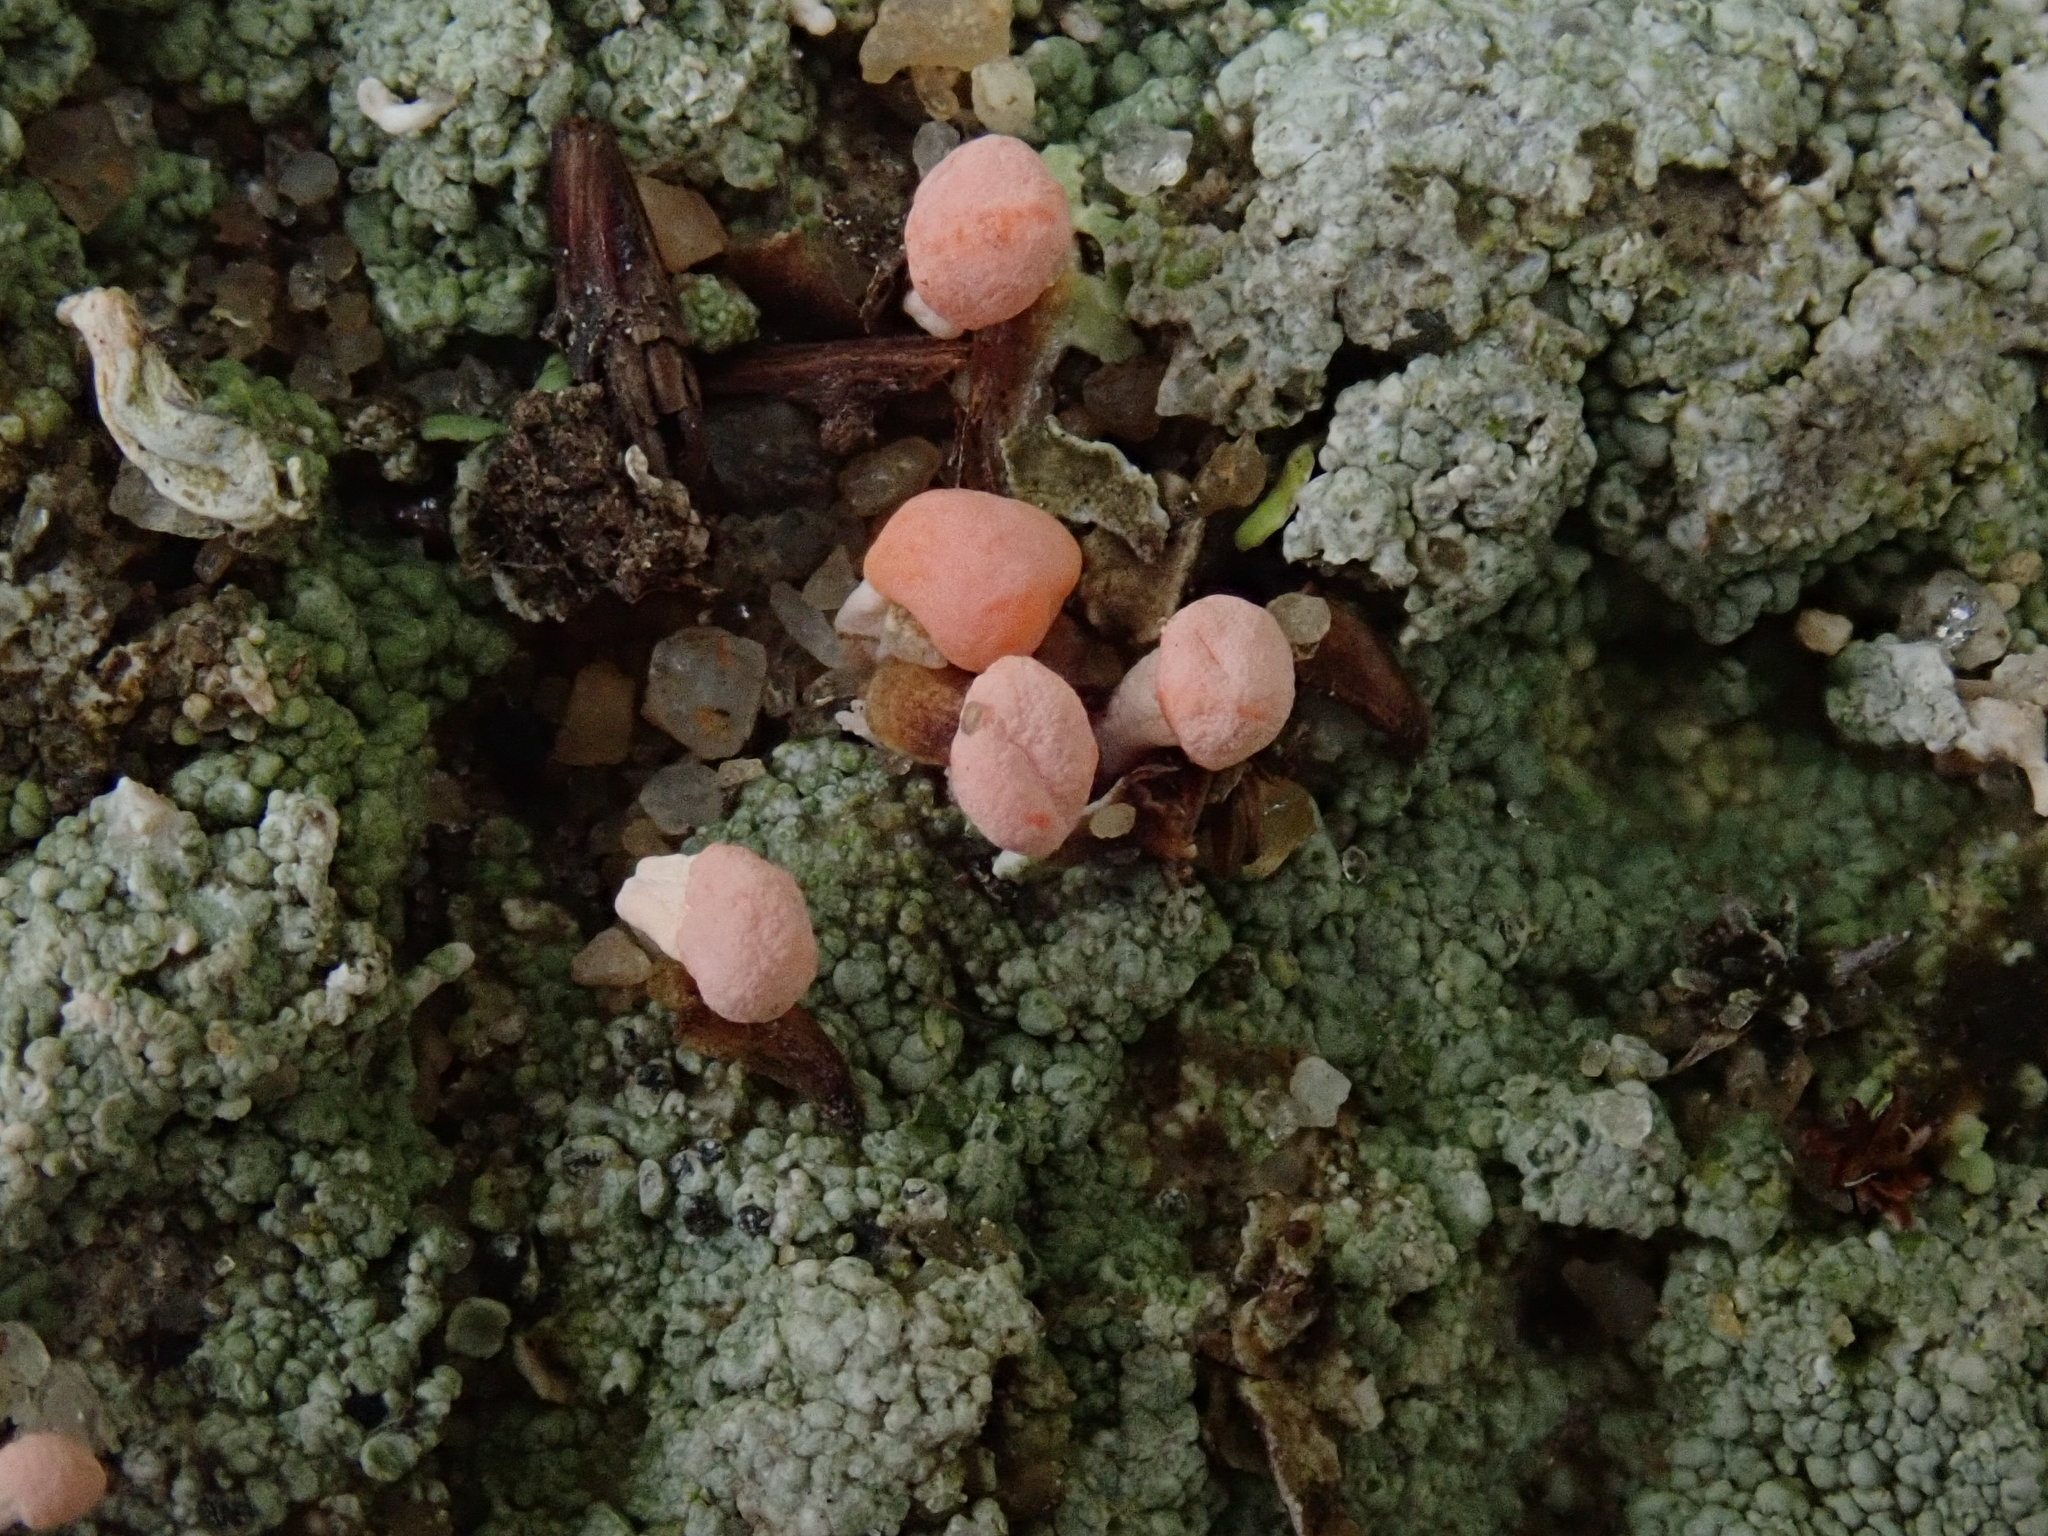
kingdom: Fungi
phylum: Ascomycota
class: Lecanoromycetes
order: Pertusariales
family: Icmadophilaceae
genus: Dibaeis
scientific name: Dibaeis baeomyces
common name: Pink earth lichen
